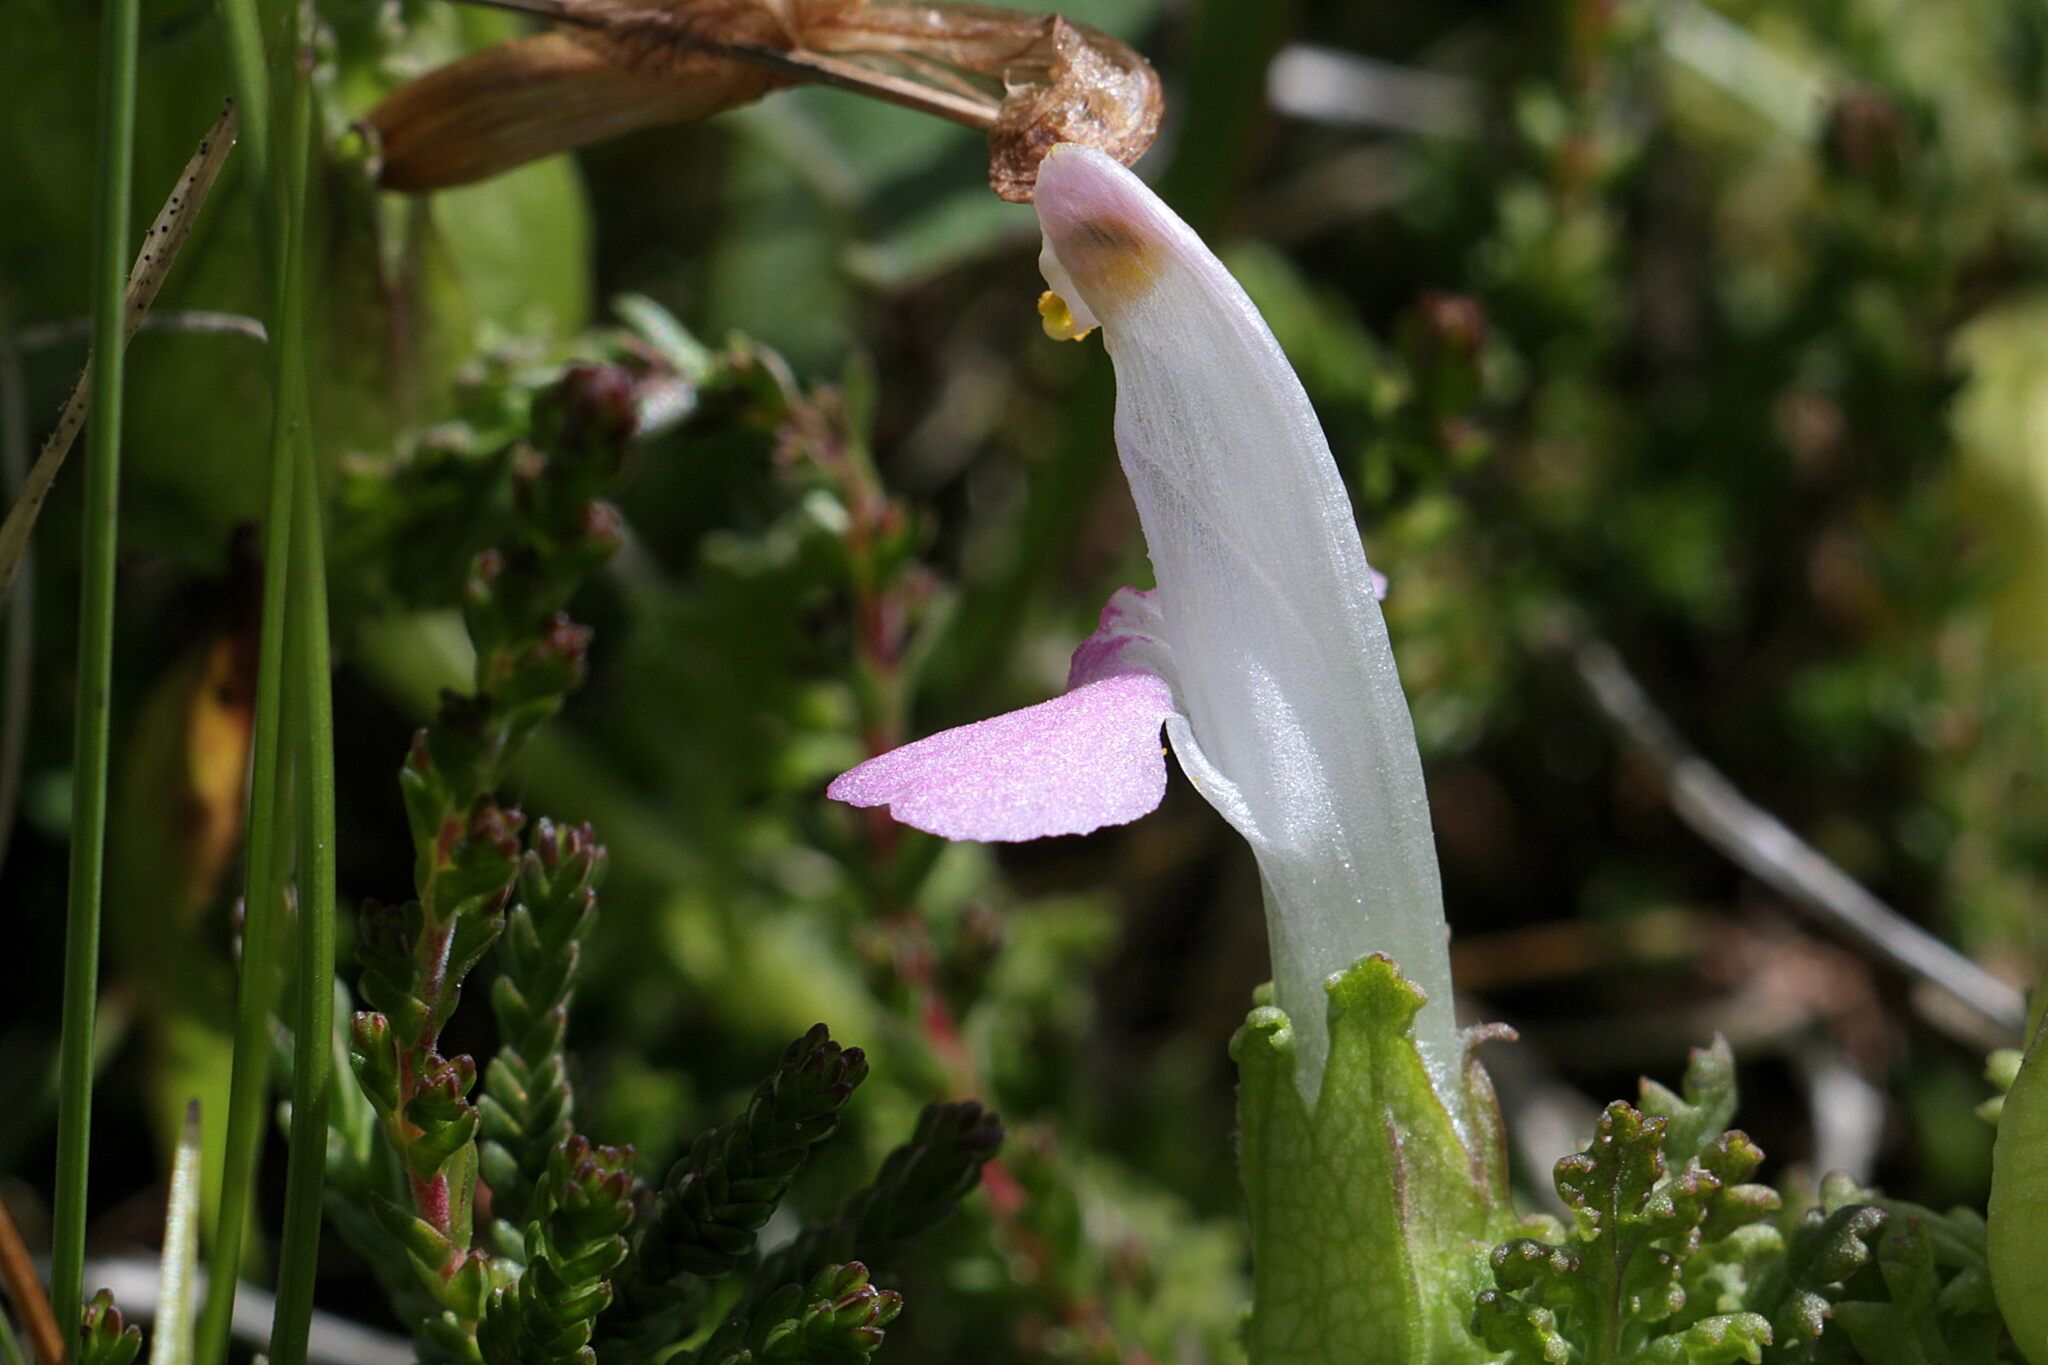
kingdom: Plantae
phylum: Tracheophyta
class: Magnoliopsida
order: Lamiales
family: Orobanchaceae
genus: Pedicularis
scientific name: Pedicularis sylvatica
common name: Lousewort
